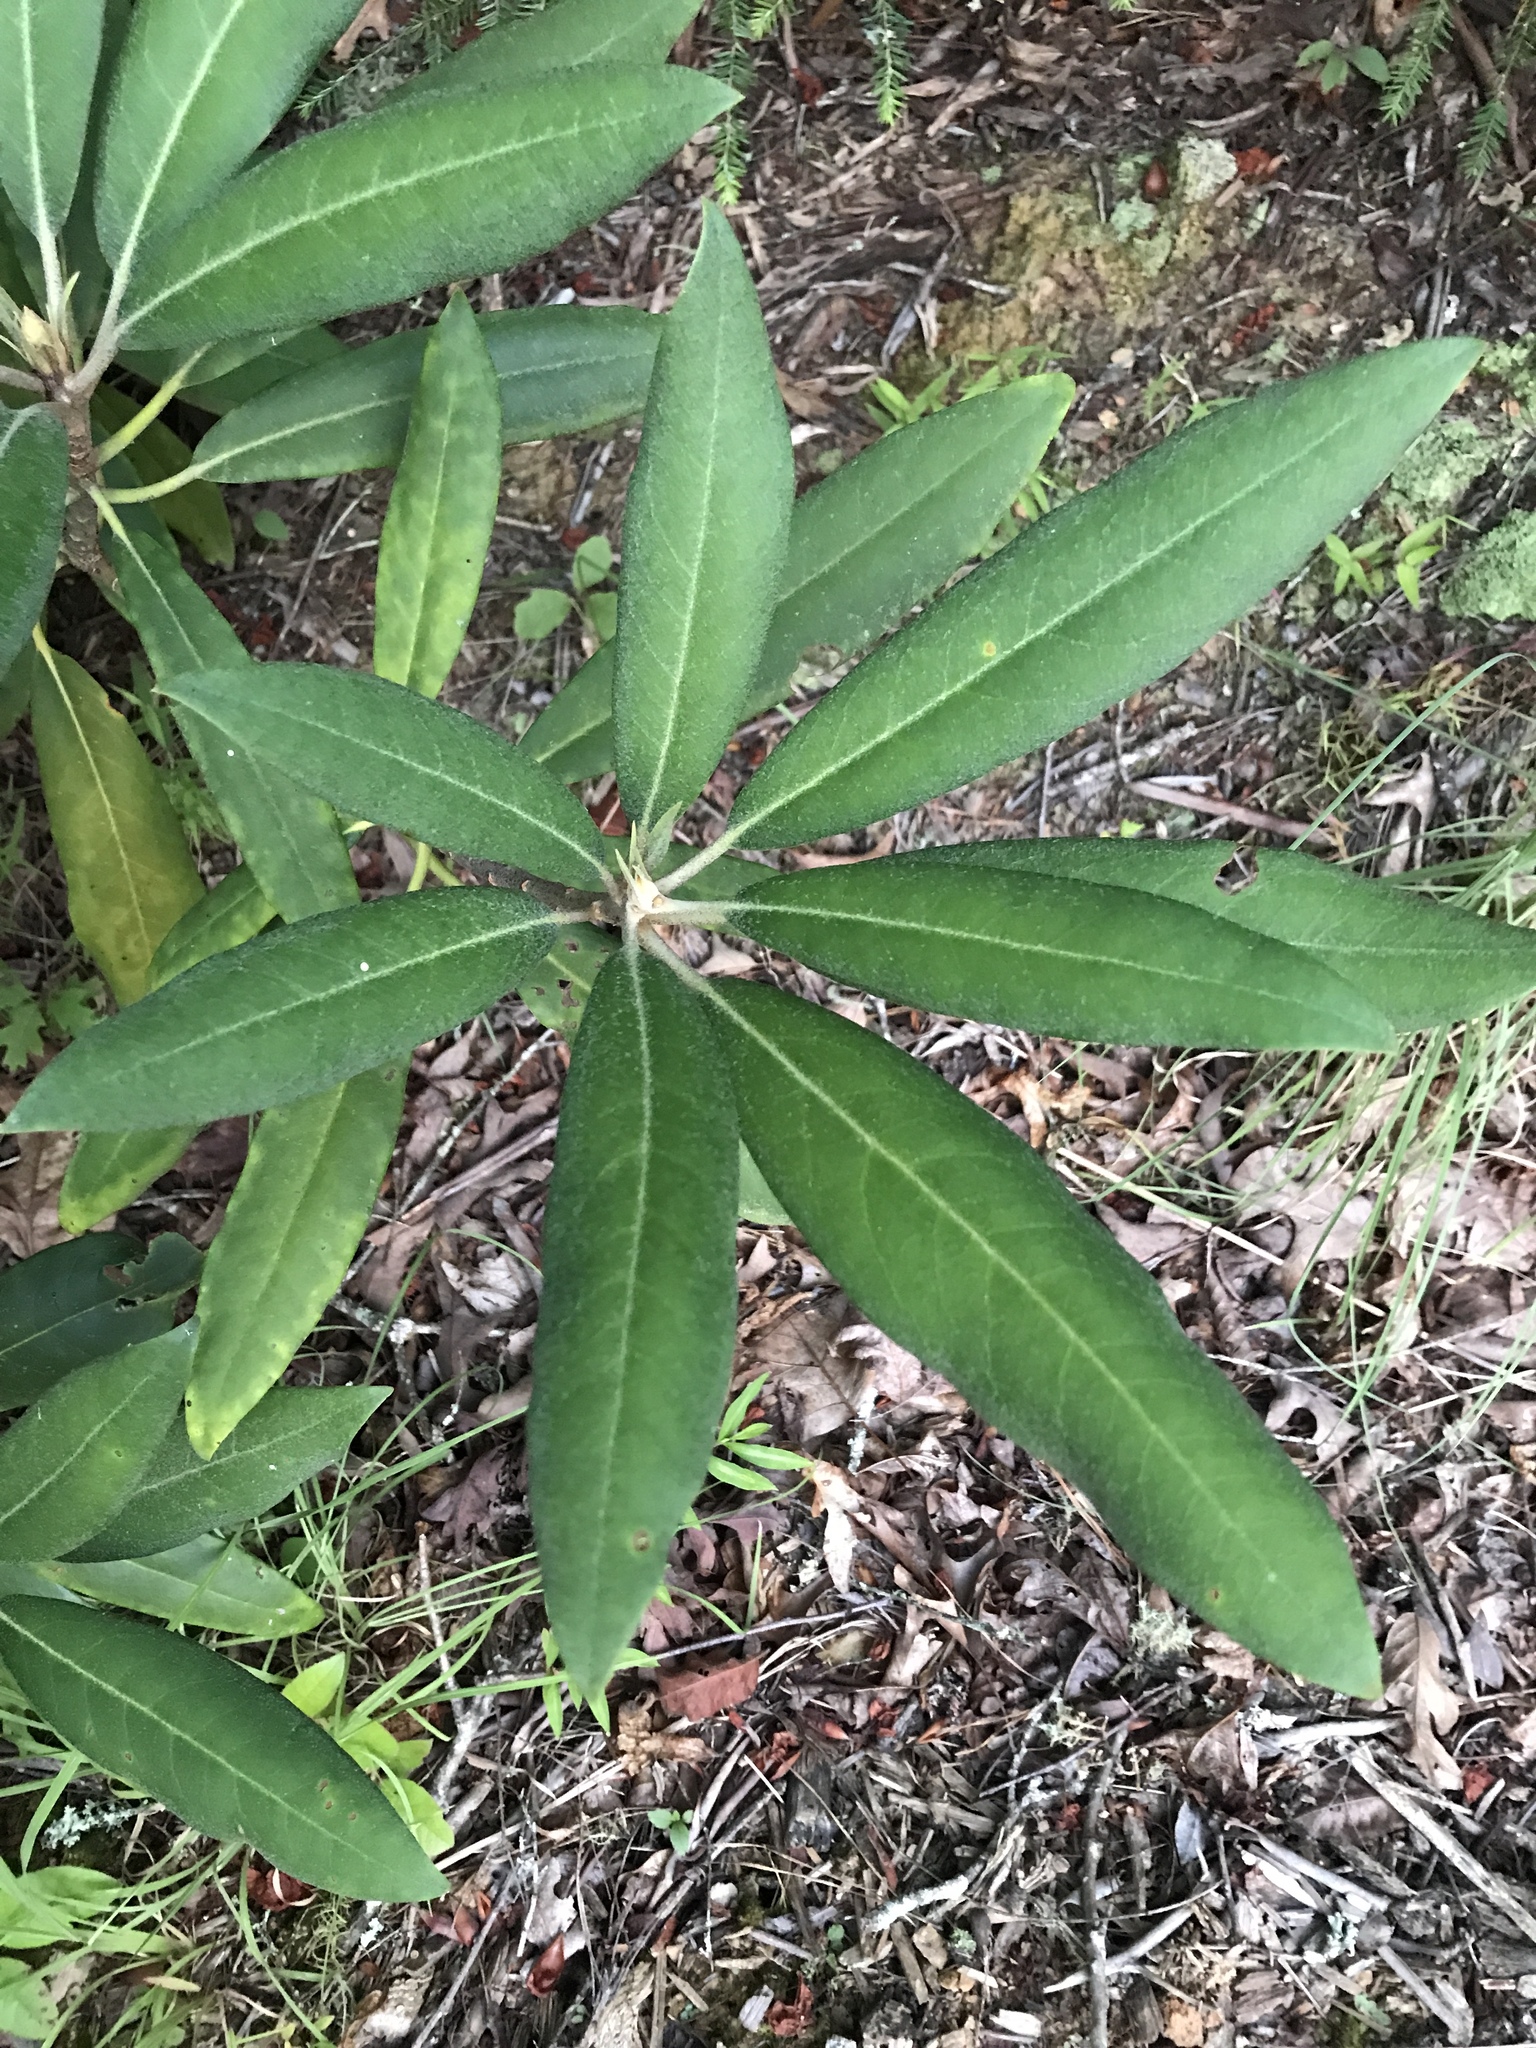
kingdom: Plantae
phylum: Tracheophyta
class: Magnoliopsida
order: Ericales
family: Ericaceae
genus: Rhododendron
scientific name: Rhododendron maximum
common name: Great rhododendron
